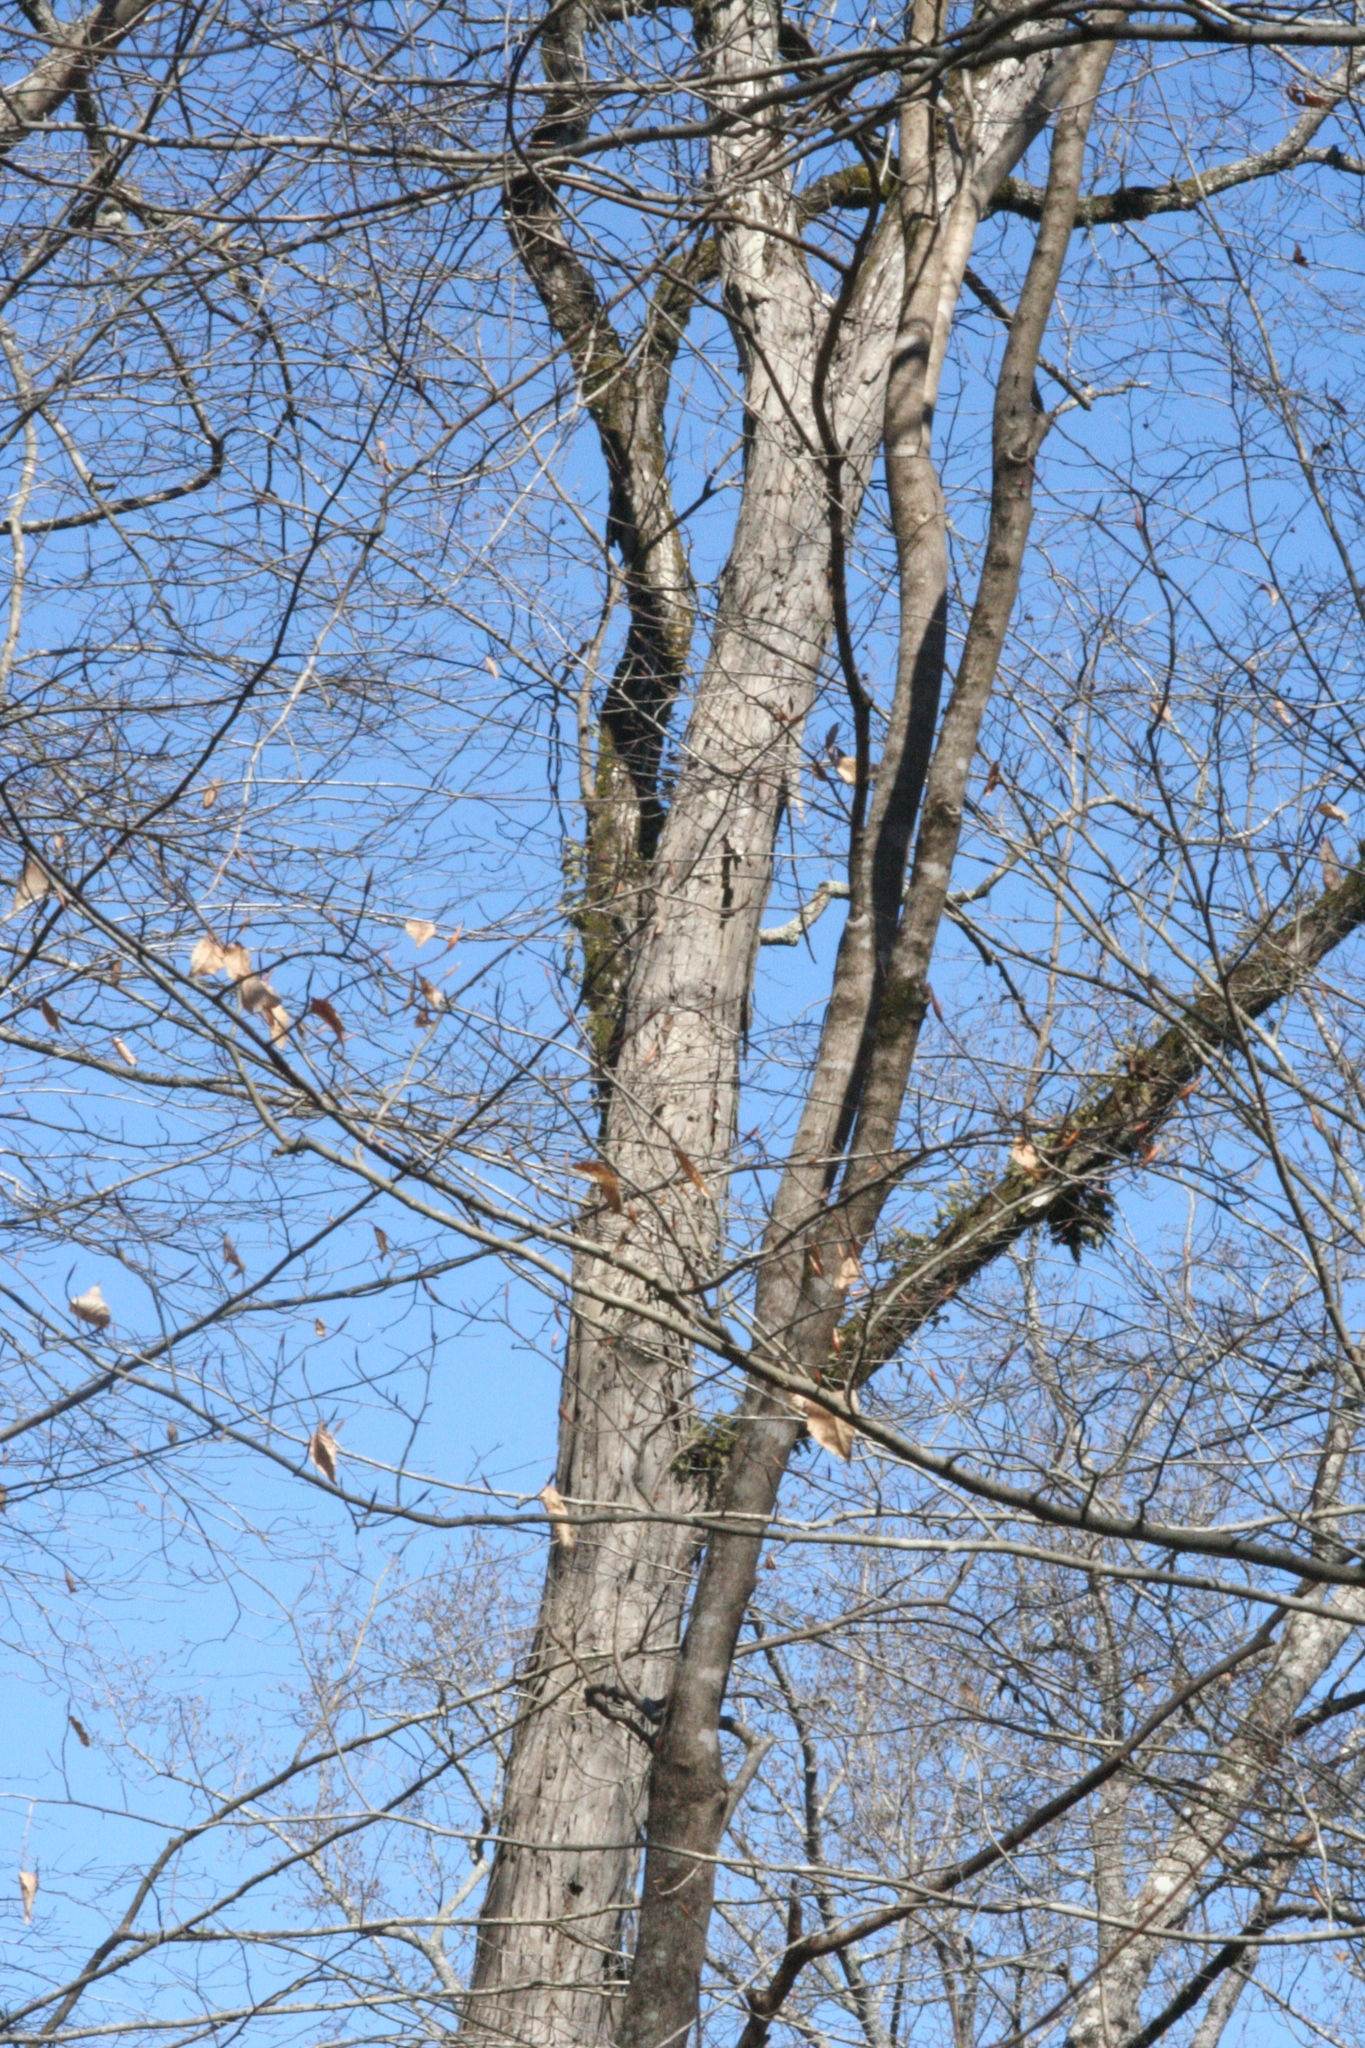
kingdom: Plantae
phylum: Tracheophyta
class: Magnoliopsida
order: Fagales
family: Juglandaceae
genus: Carya
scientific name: Carya ovalis
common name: False shagbark
